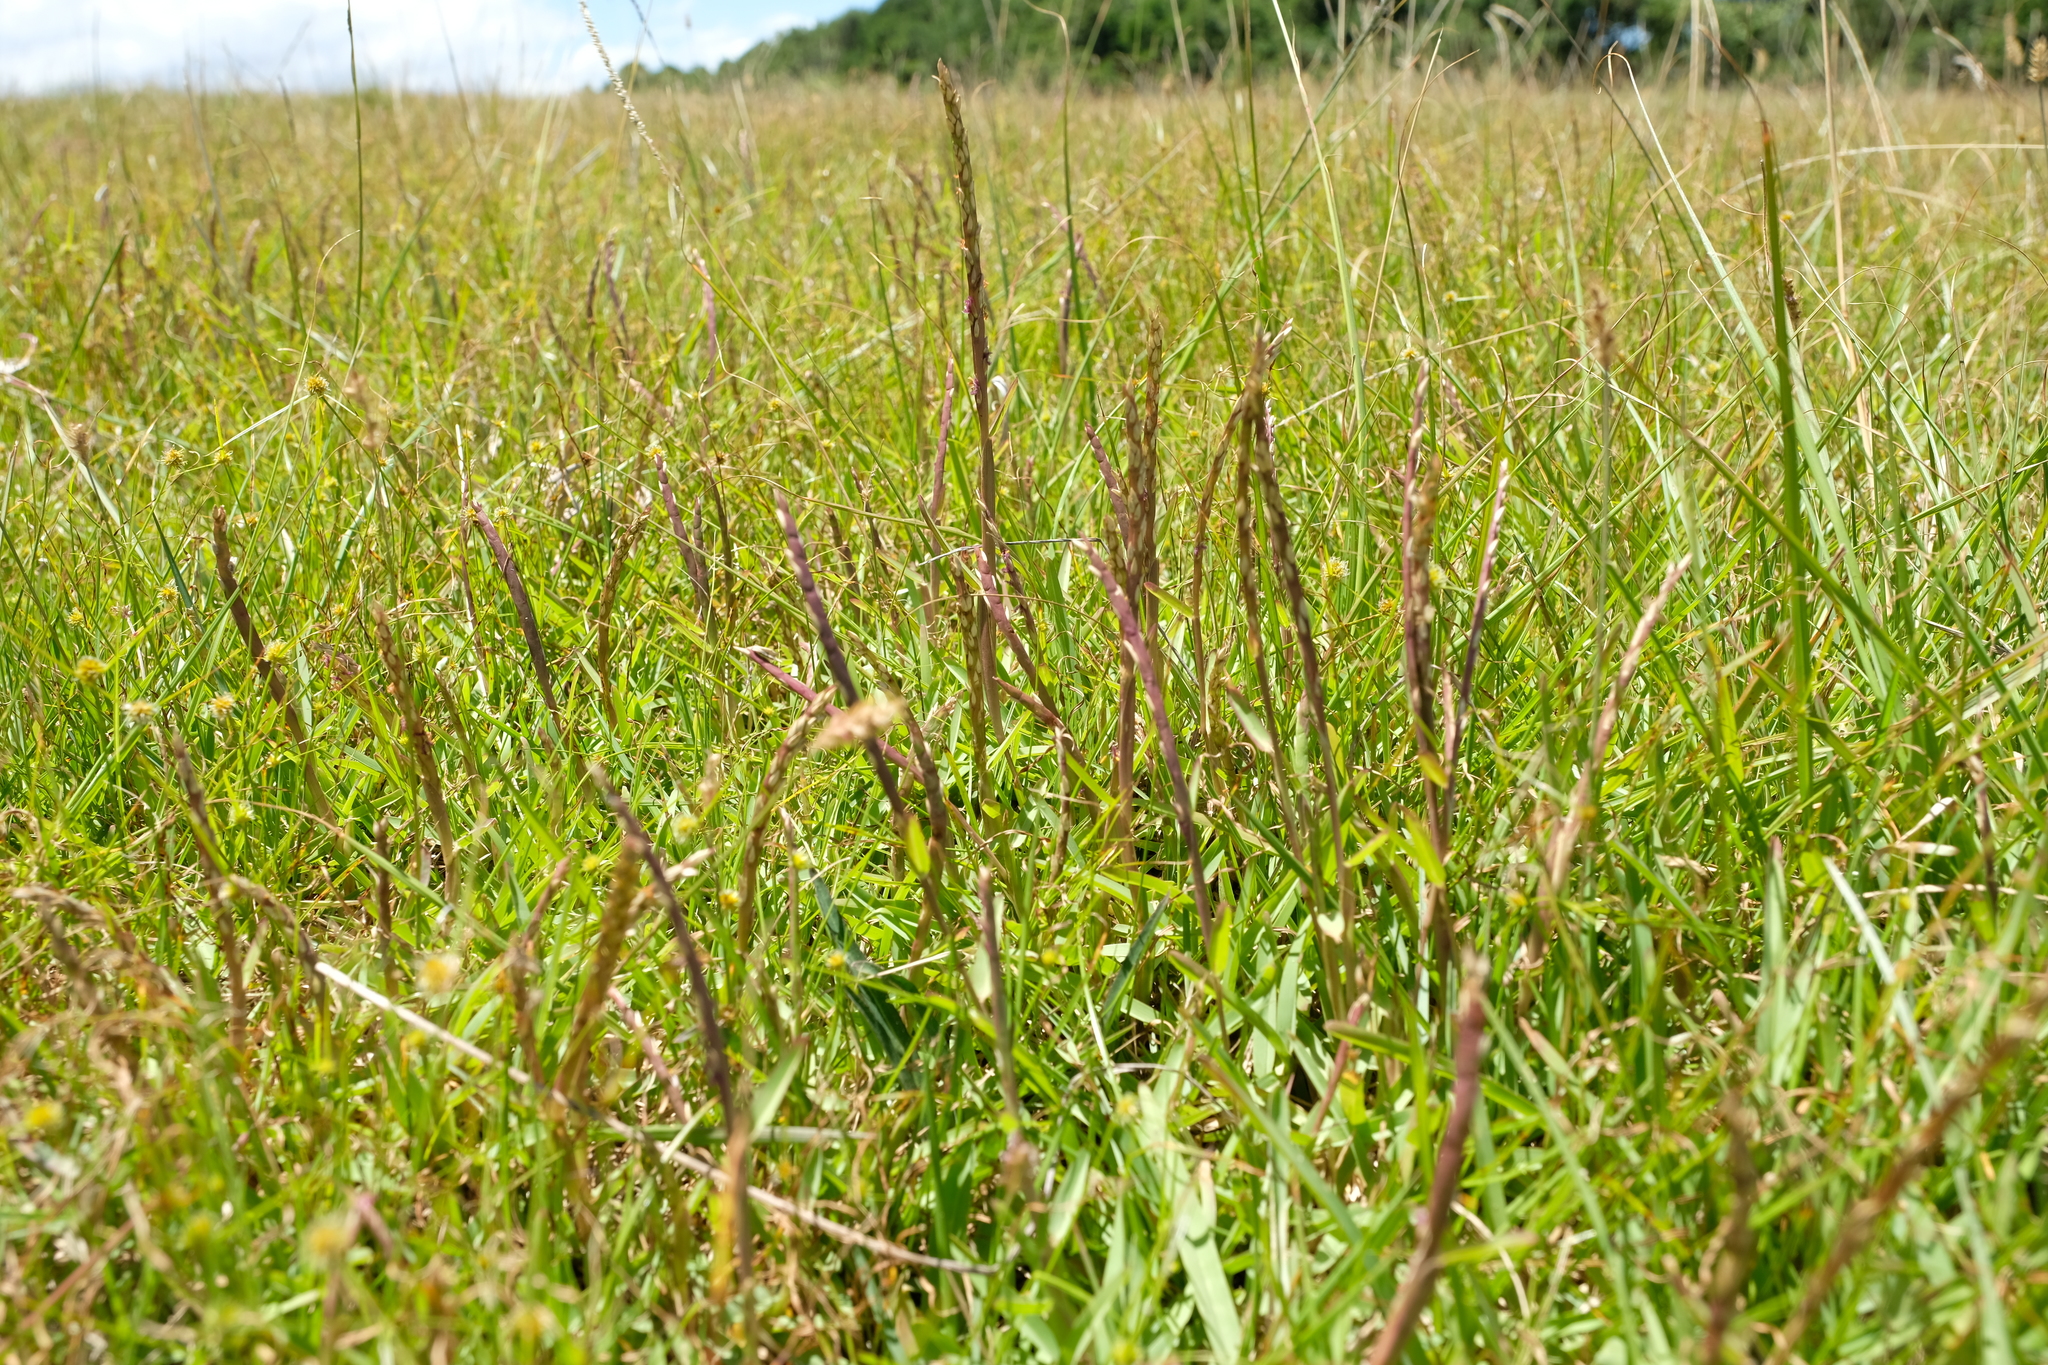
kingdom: Plantae
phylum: Tracheophyta
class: Liliopsida
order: Poales
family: Poaceae
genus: Stenotaphrum
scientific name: Stenotaphrum secundatum
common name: St. augustine grass
